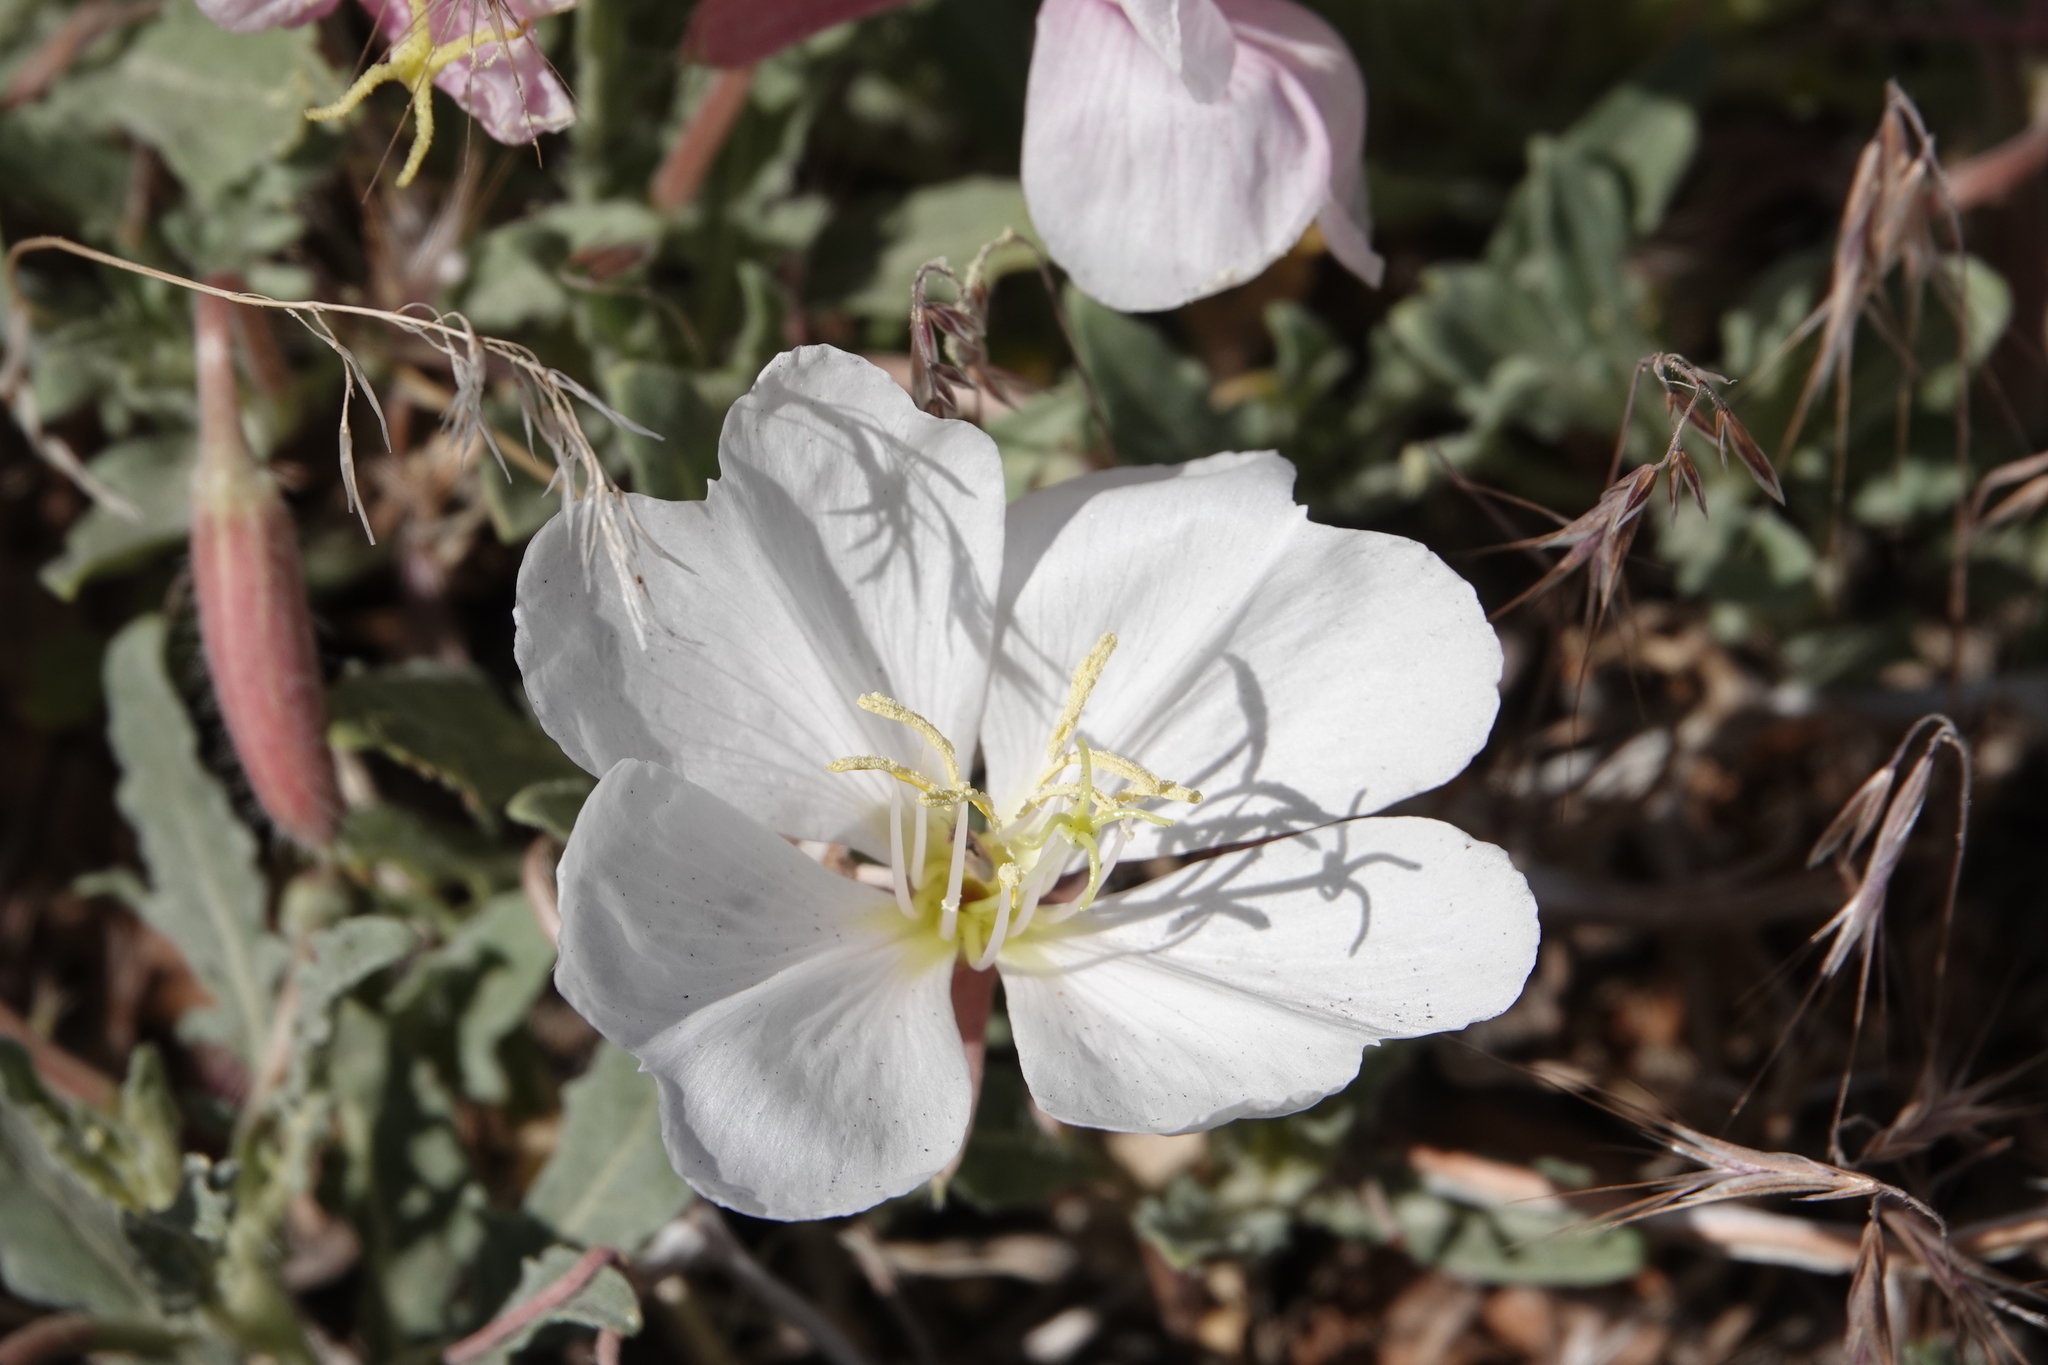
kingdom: Plantae
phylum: Tracheophyta
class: Magnoliopsida
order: Myrtales
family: Onagraceae
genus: Oenothera
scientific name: Oenothera californica
